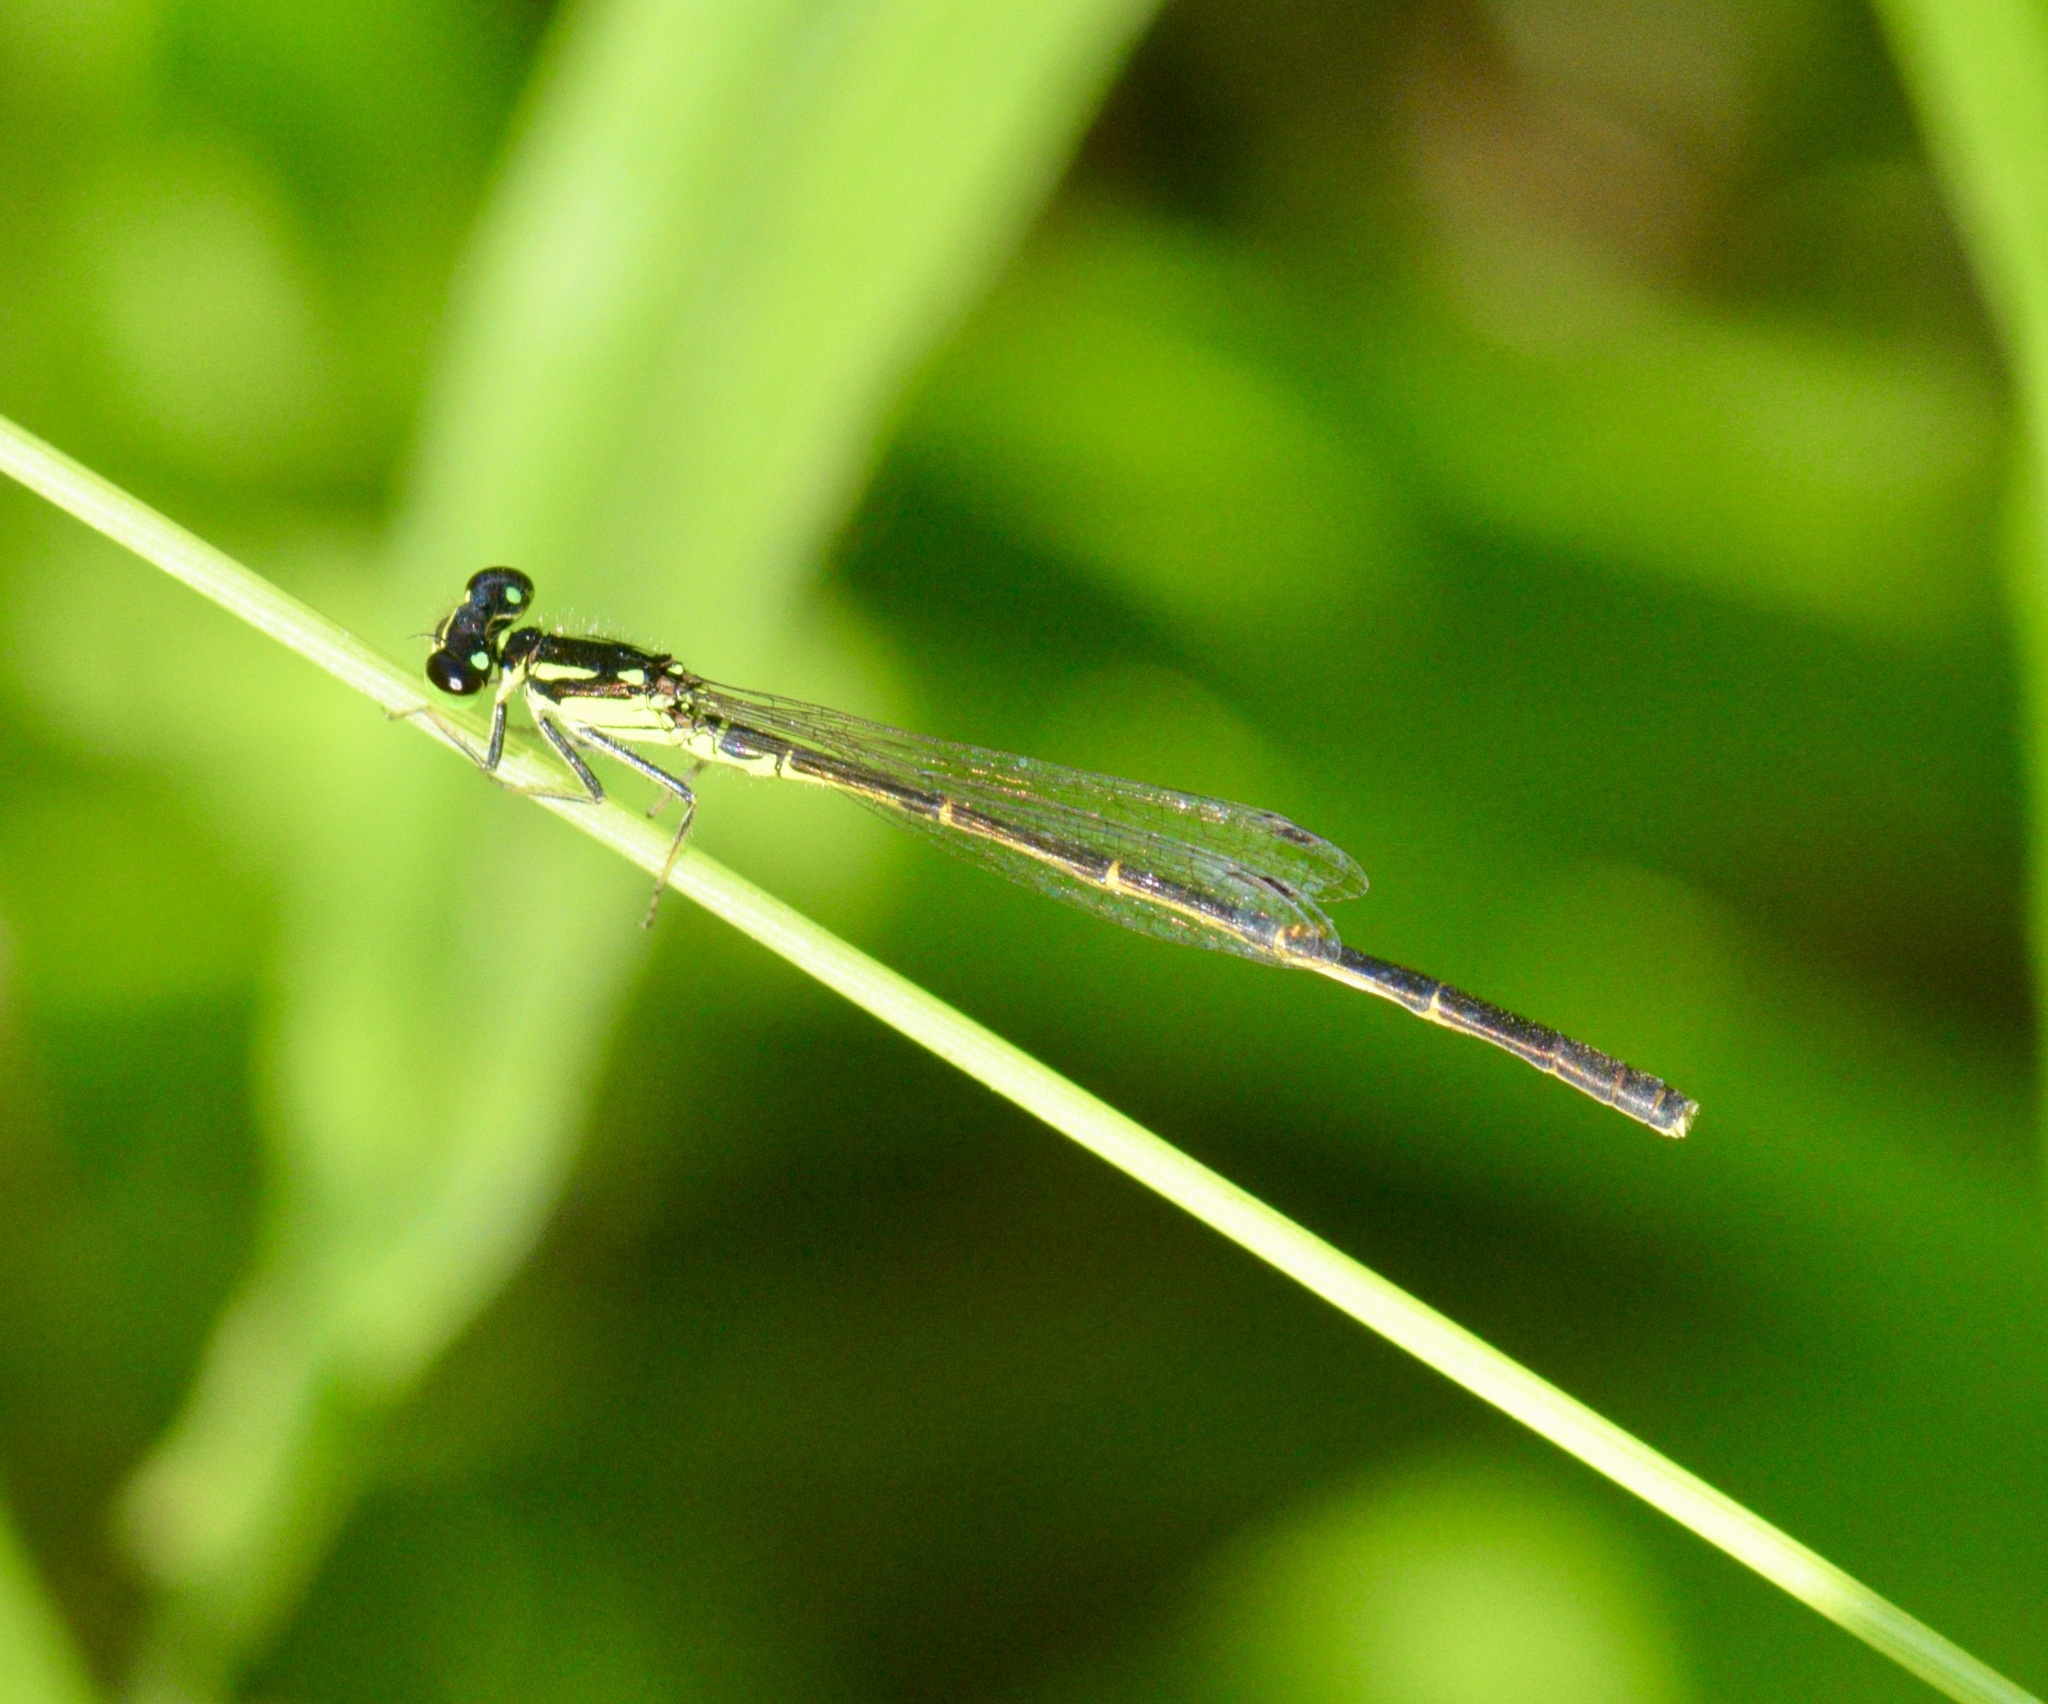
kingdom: Animalia
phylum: Arthropoda
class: Insecta
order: Odonata
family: Coenagrionidae
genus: Ischnura
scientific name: Ischnura posita
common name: Fragile forktail
